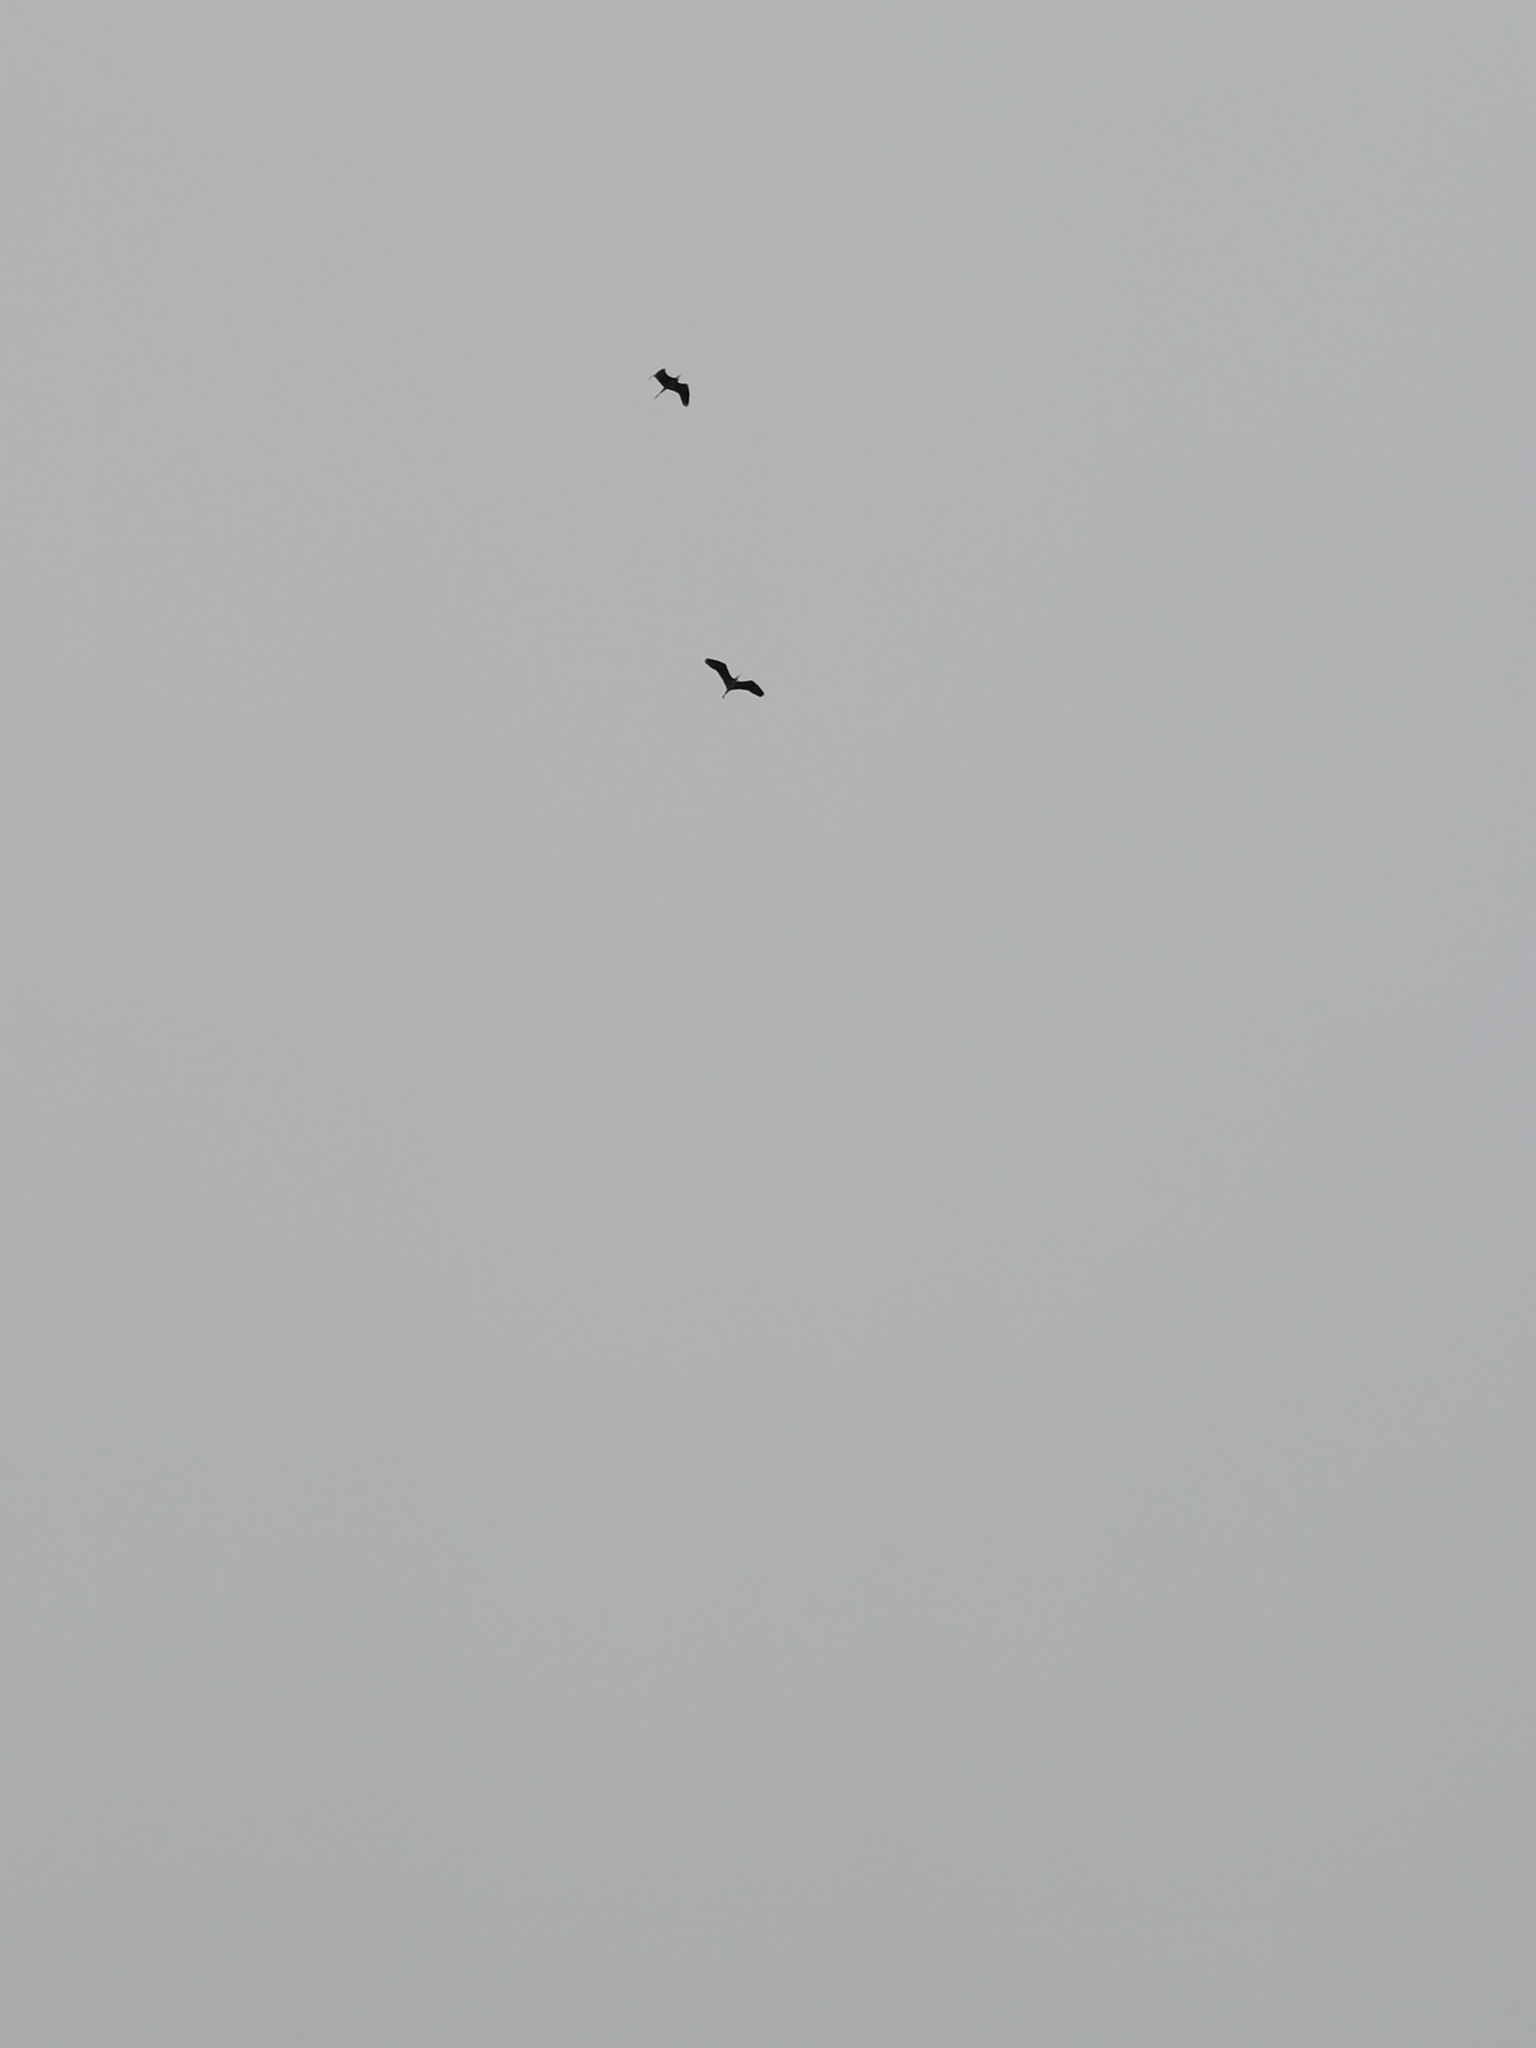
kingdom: Animalia
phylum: Chordata
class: Aves
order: Pelecaniformes
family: Ardeidae
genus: Ardea
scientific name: Ardea cinerea
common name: Grey heron
